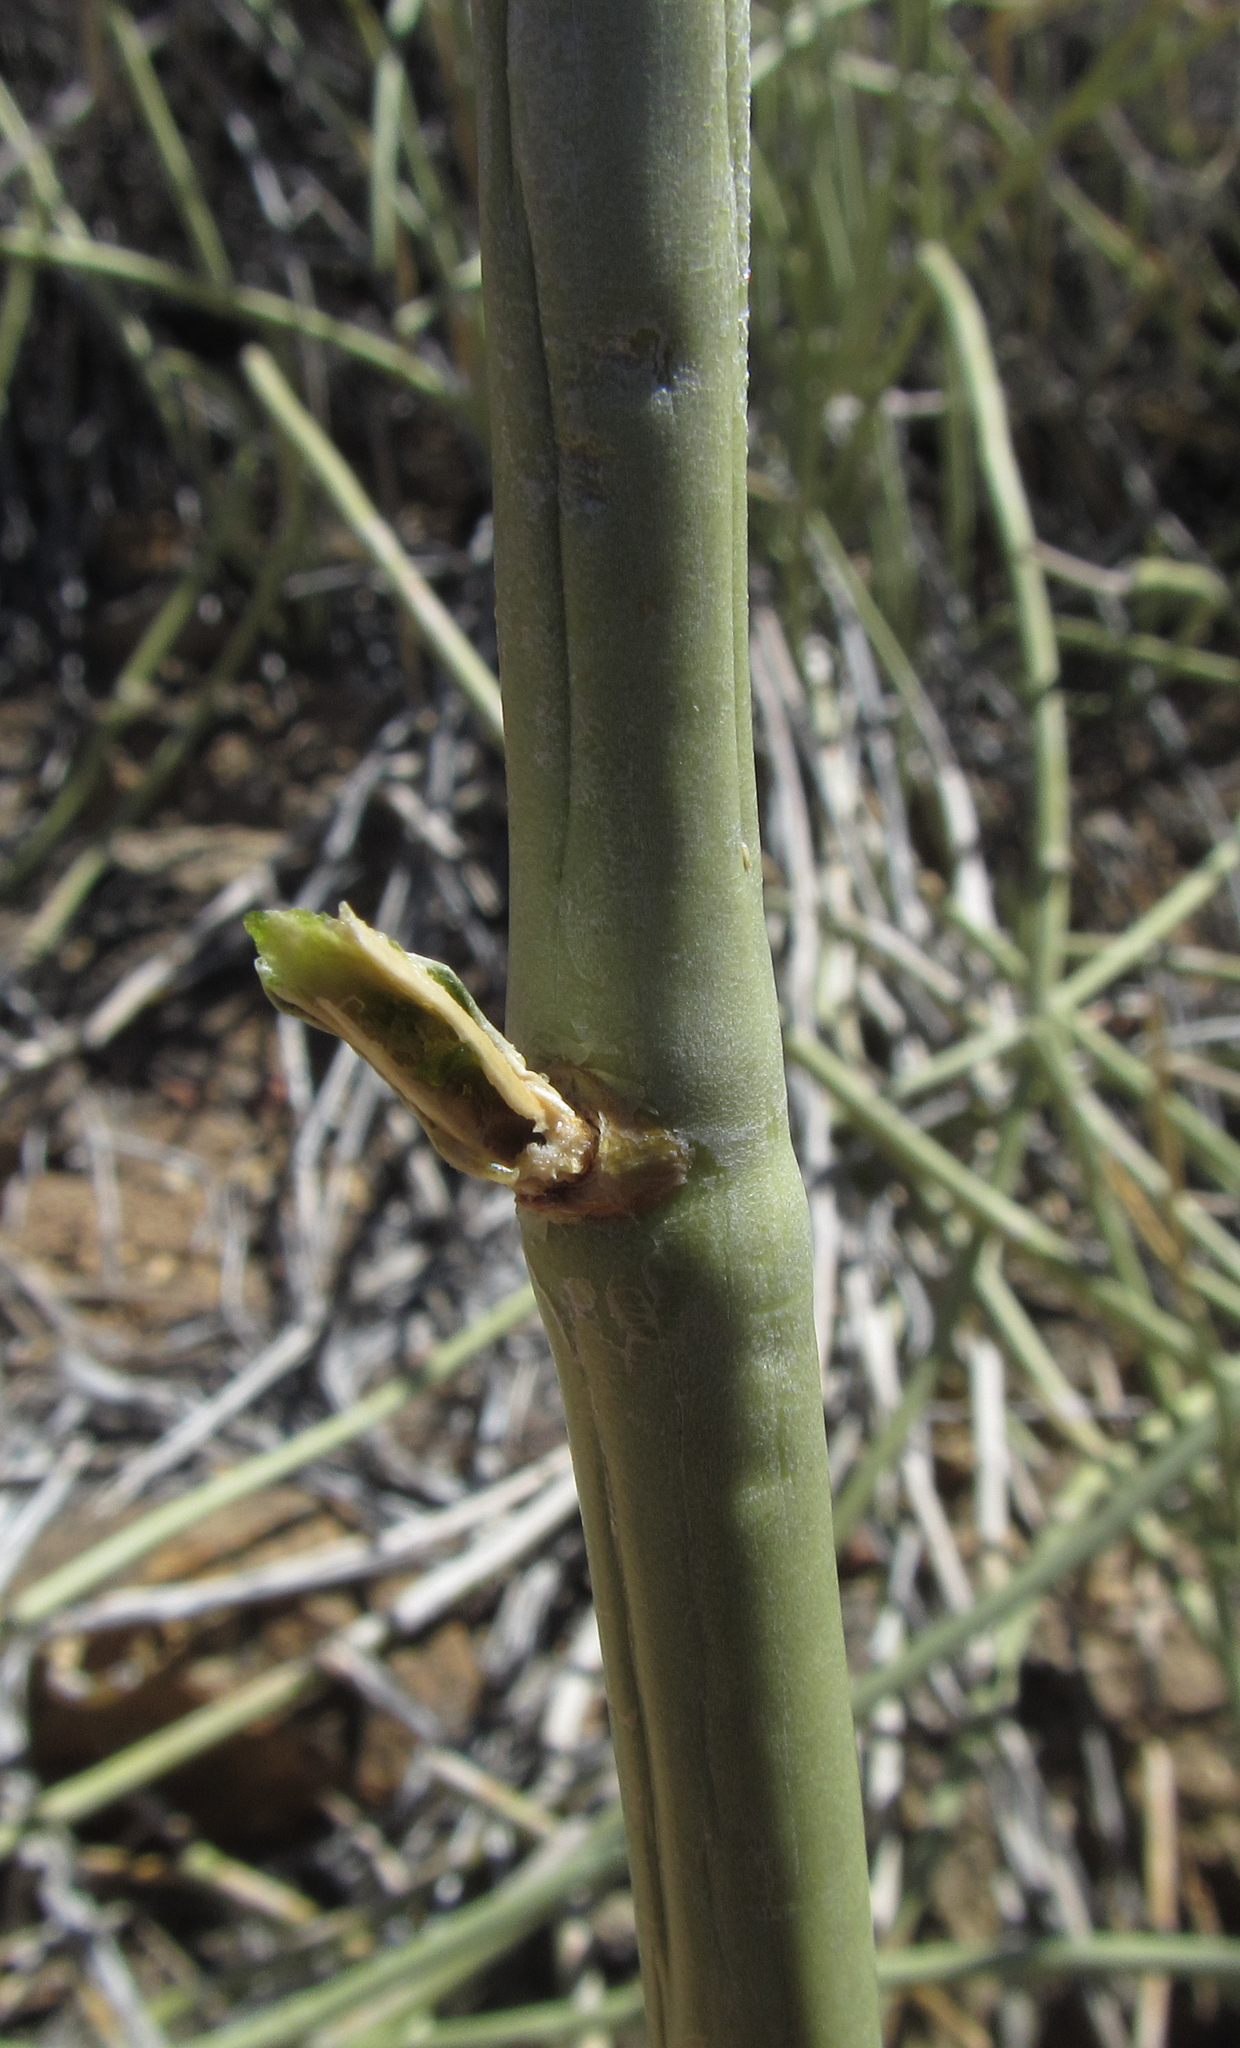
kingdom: Plantae
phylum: Tracheophyta
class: Magnoliopsida
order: Gentianales
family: Apocynaceae
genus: Cynanchum
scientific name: Cynanchum viminale
